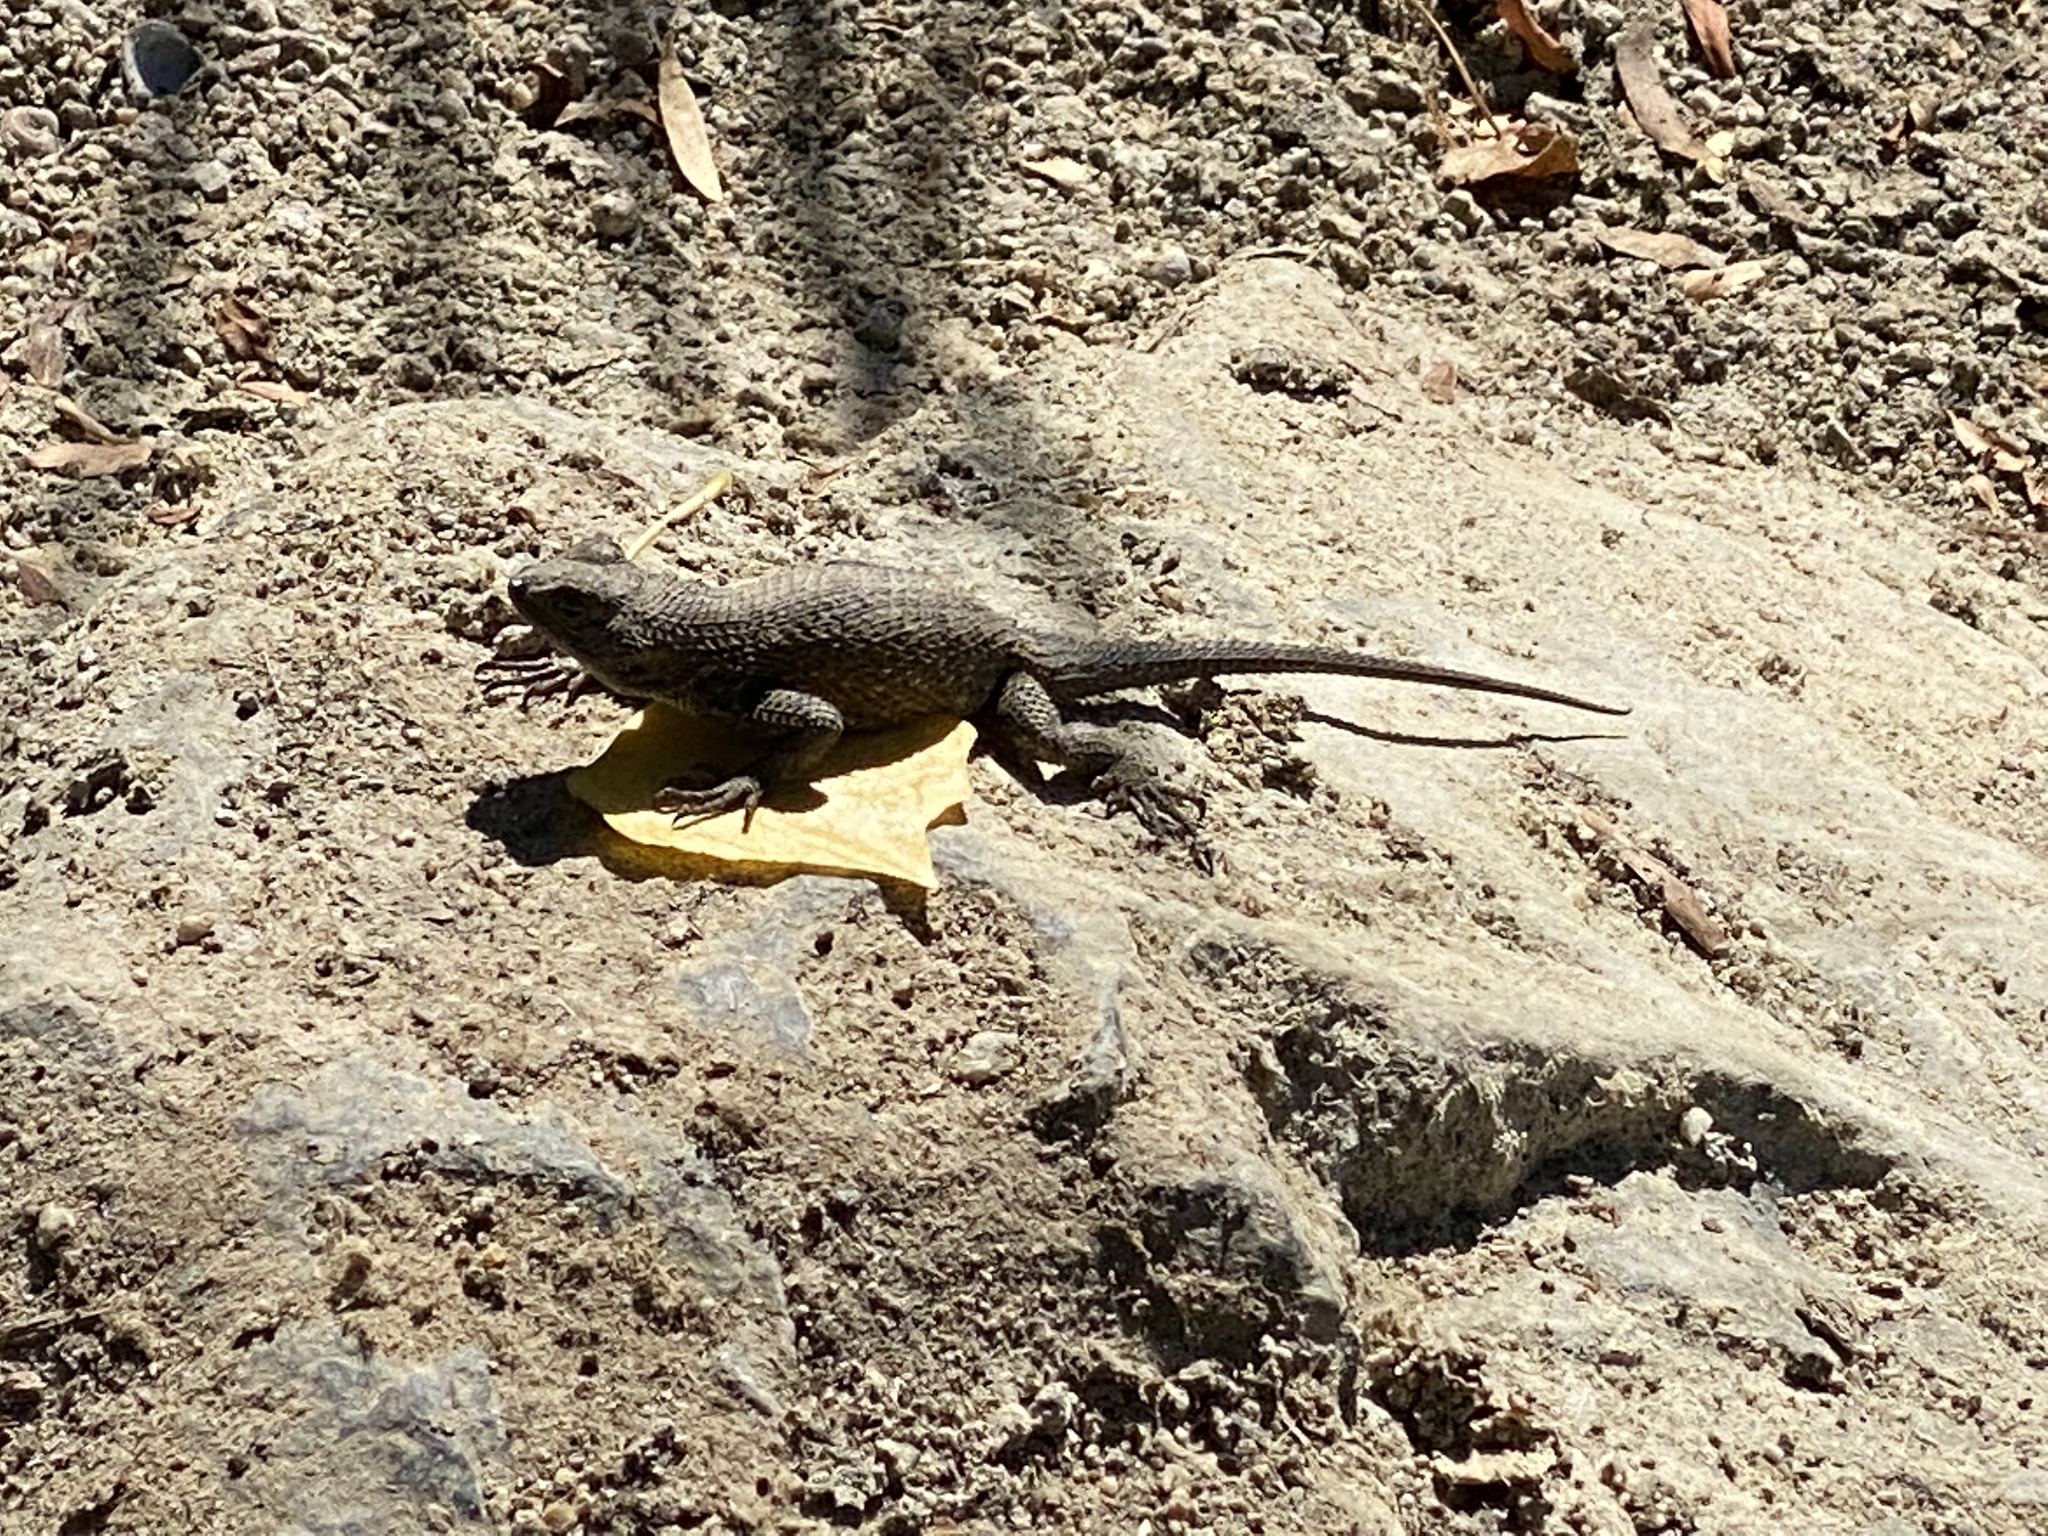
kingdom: Animalia
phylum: Chordata
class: Squamata
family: Phrynosomatidae
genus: Sceloporus
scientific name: Sceloporus occidentalis
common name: Western fence lizard
